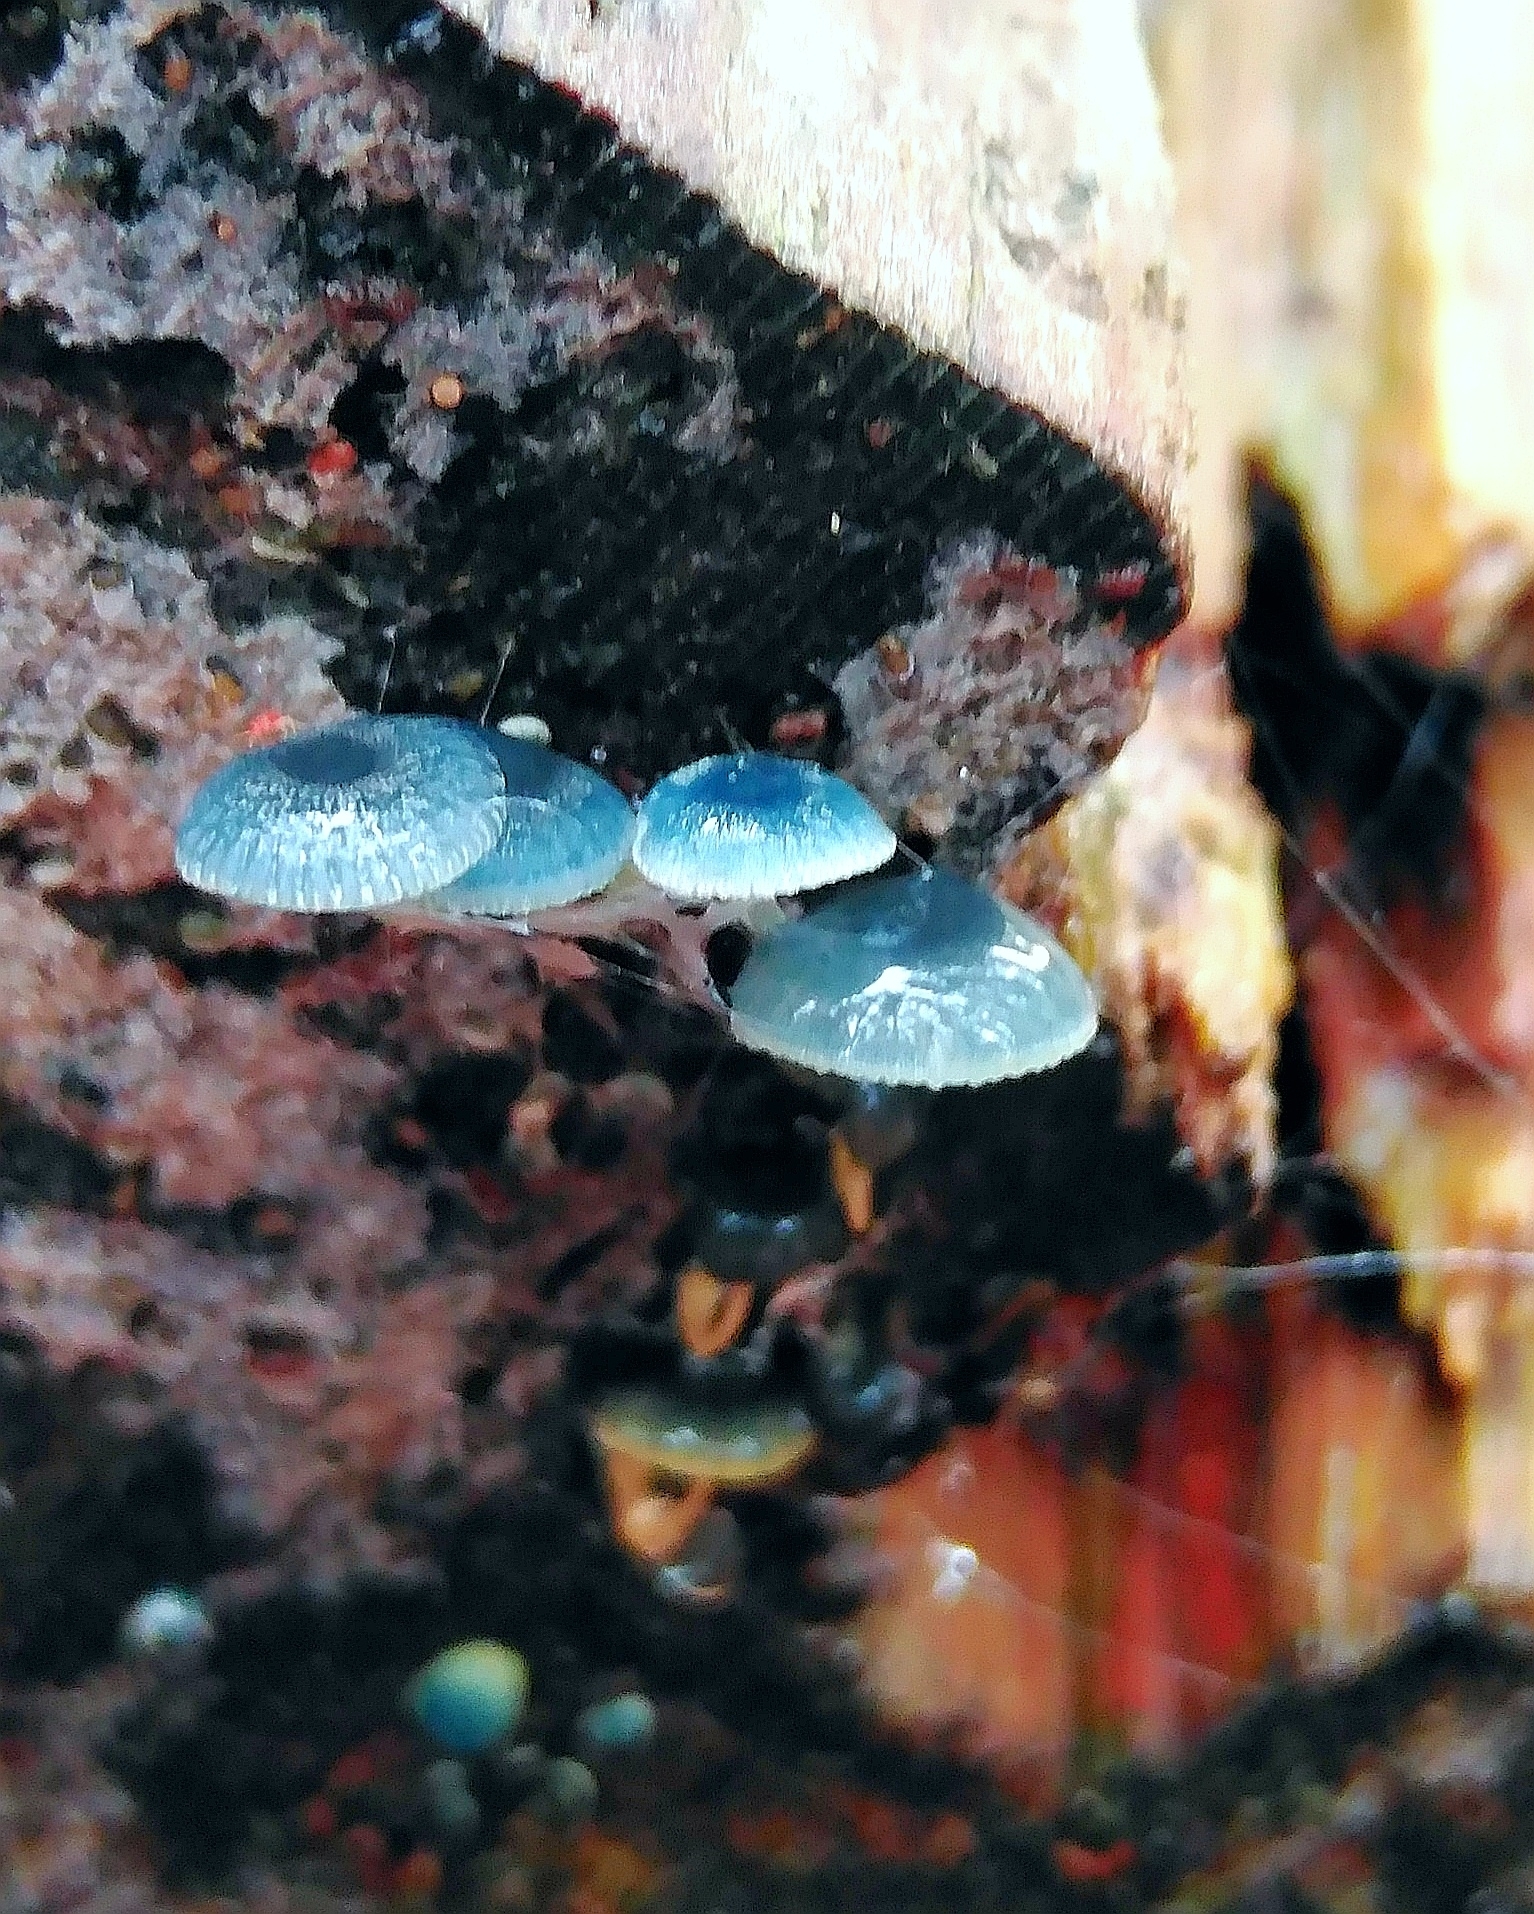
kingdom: Fungi
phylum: Basidiomycota
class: Agaricomycetes
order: Agaricales
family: Mycenaceae
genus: Mycena
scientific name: Mycena interrupta
